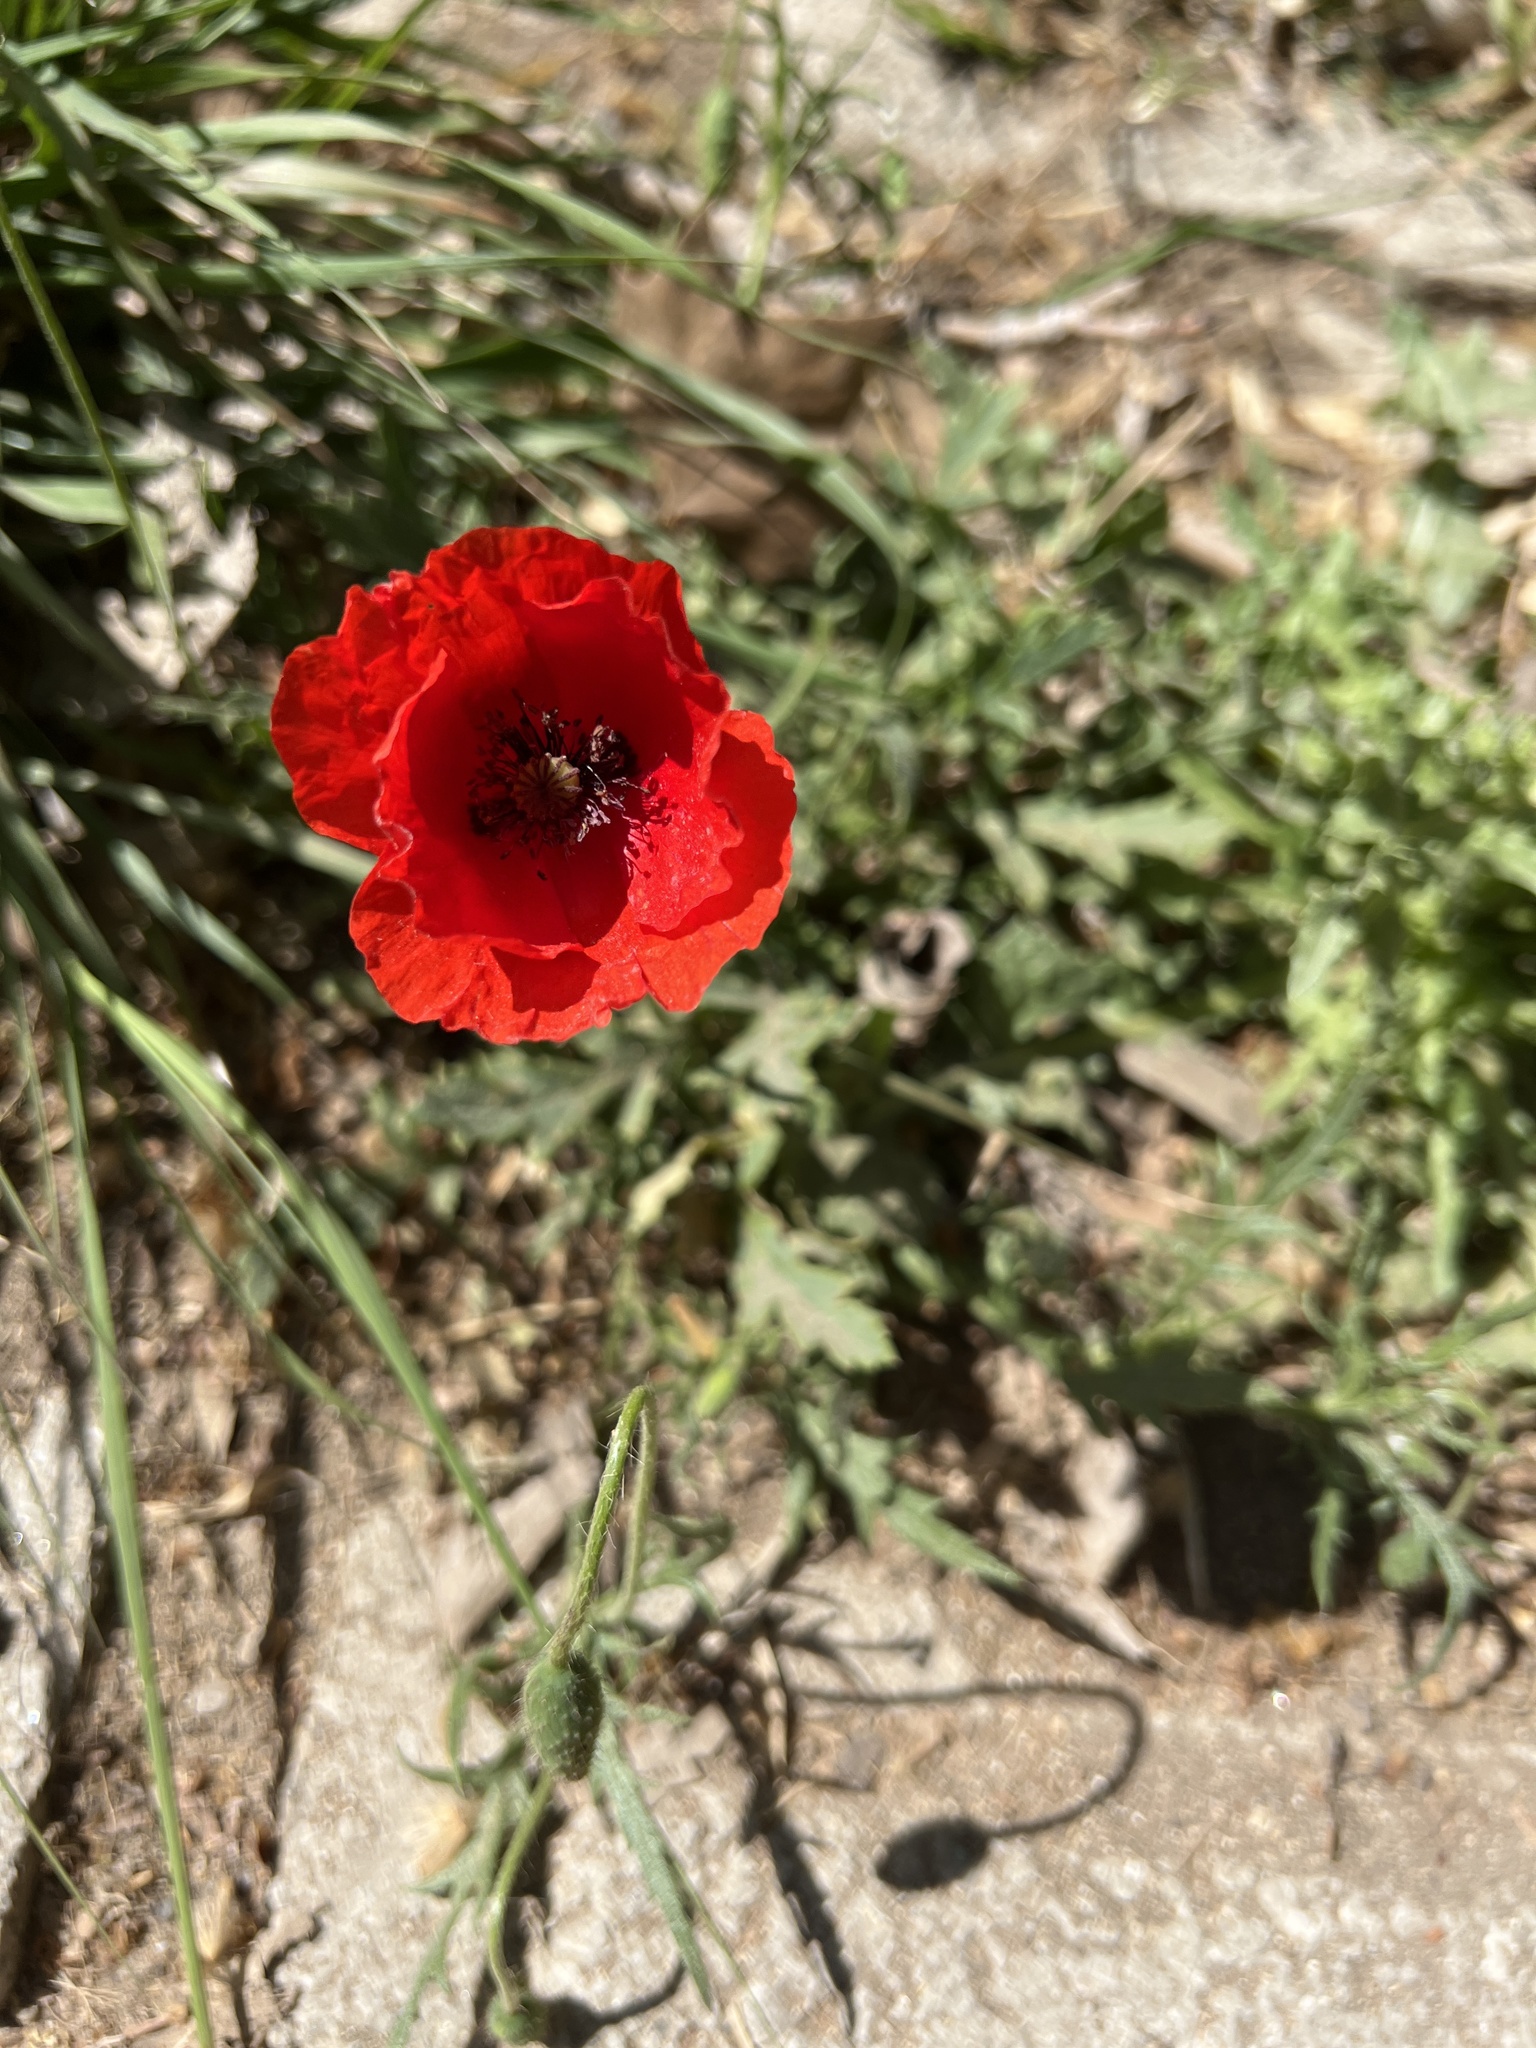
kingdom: Plantae
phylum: Tracheophyta
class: Magnoliopsida
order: Ranunculales
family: Papaveraceae
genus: Papaver
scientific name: Papaver rhoeas
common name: Corn poppy
